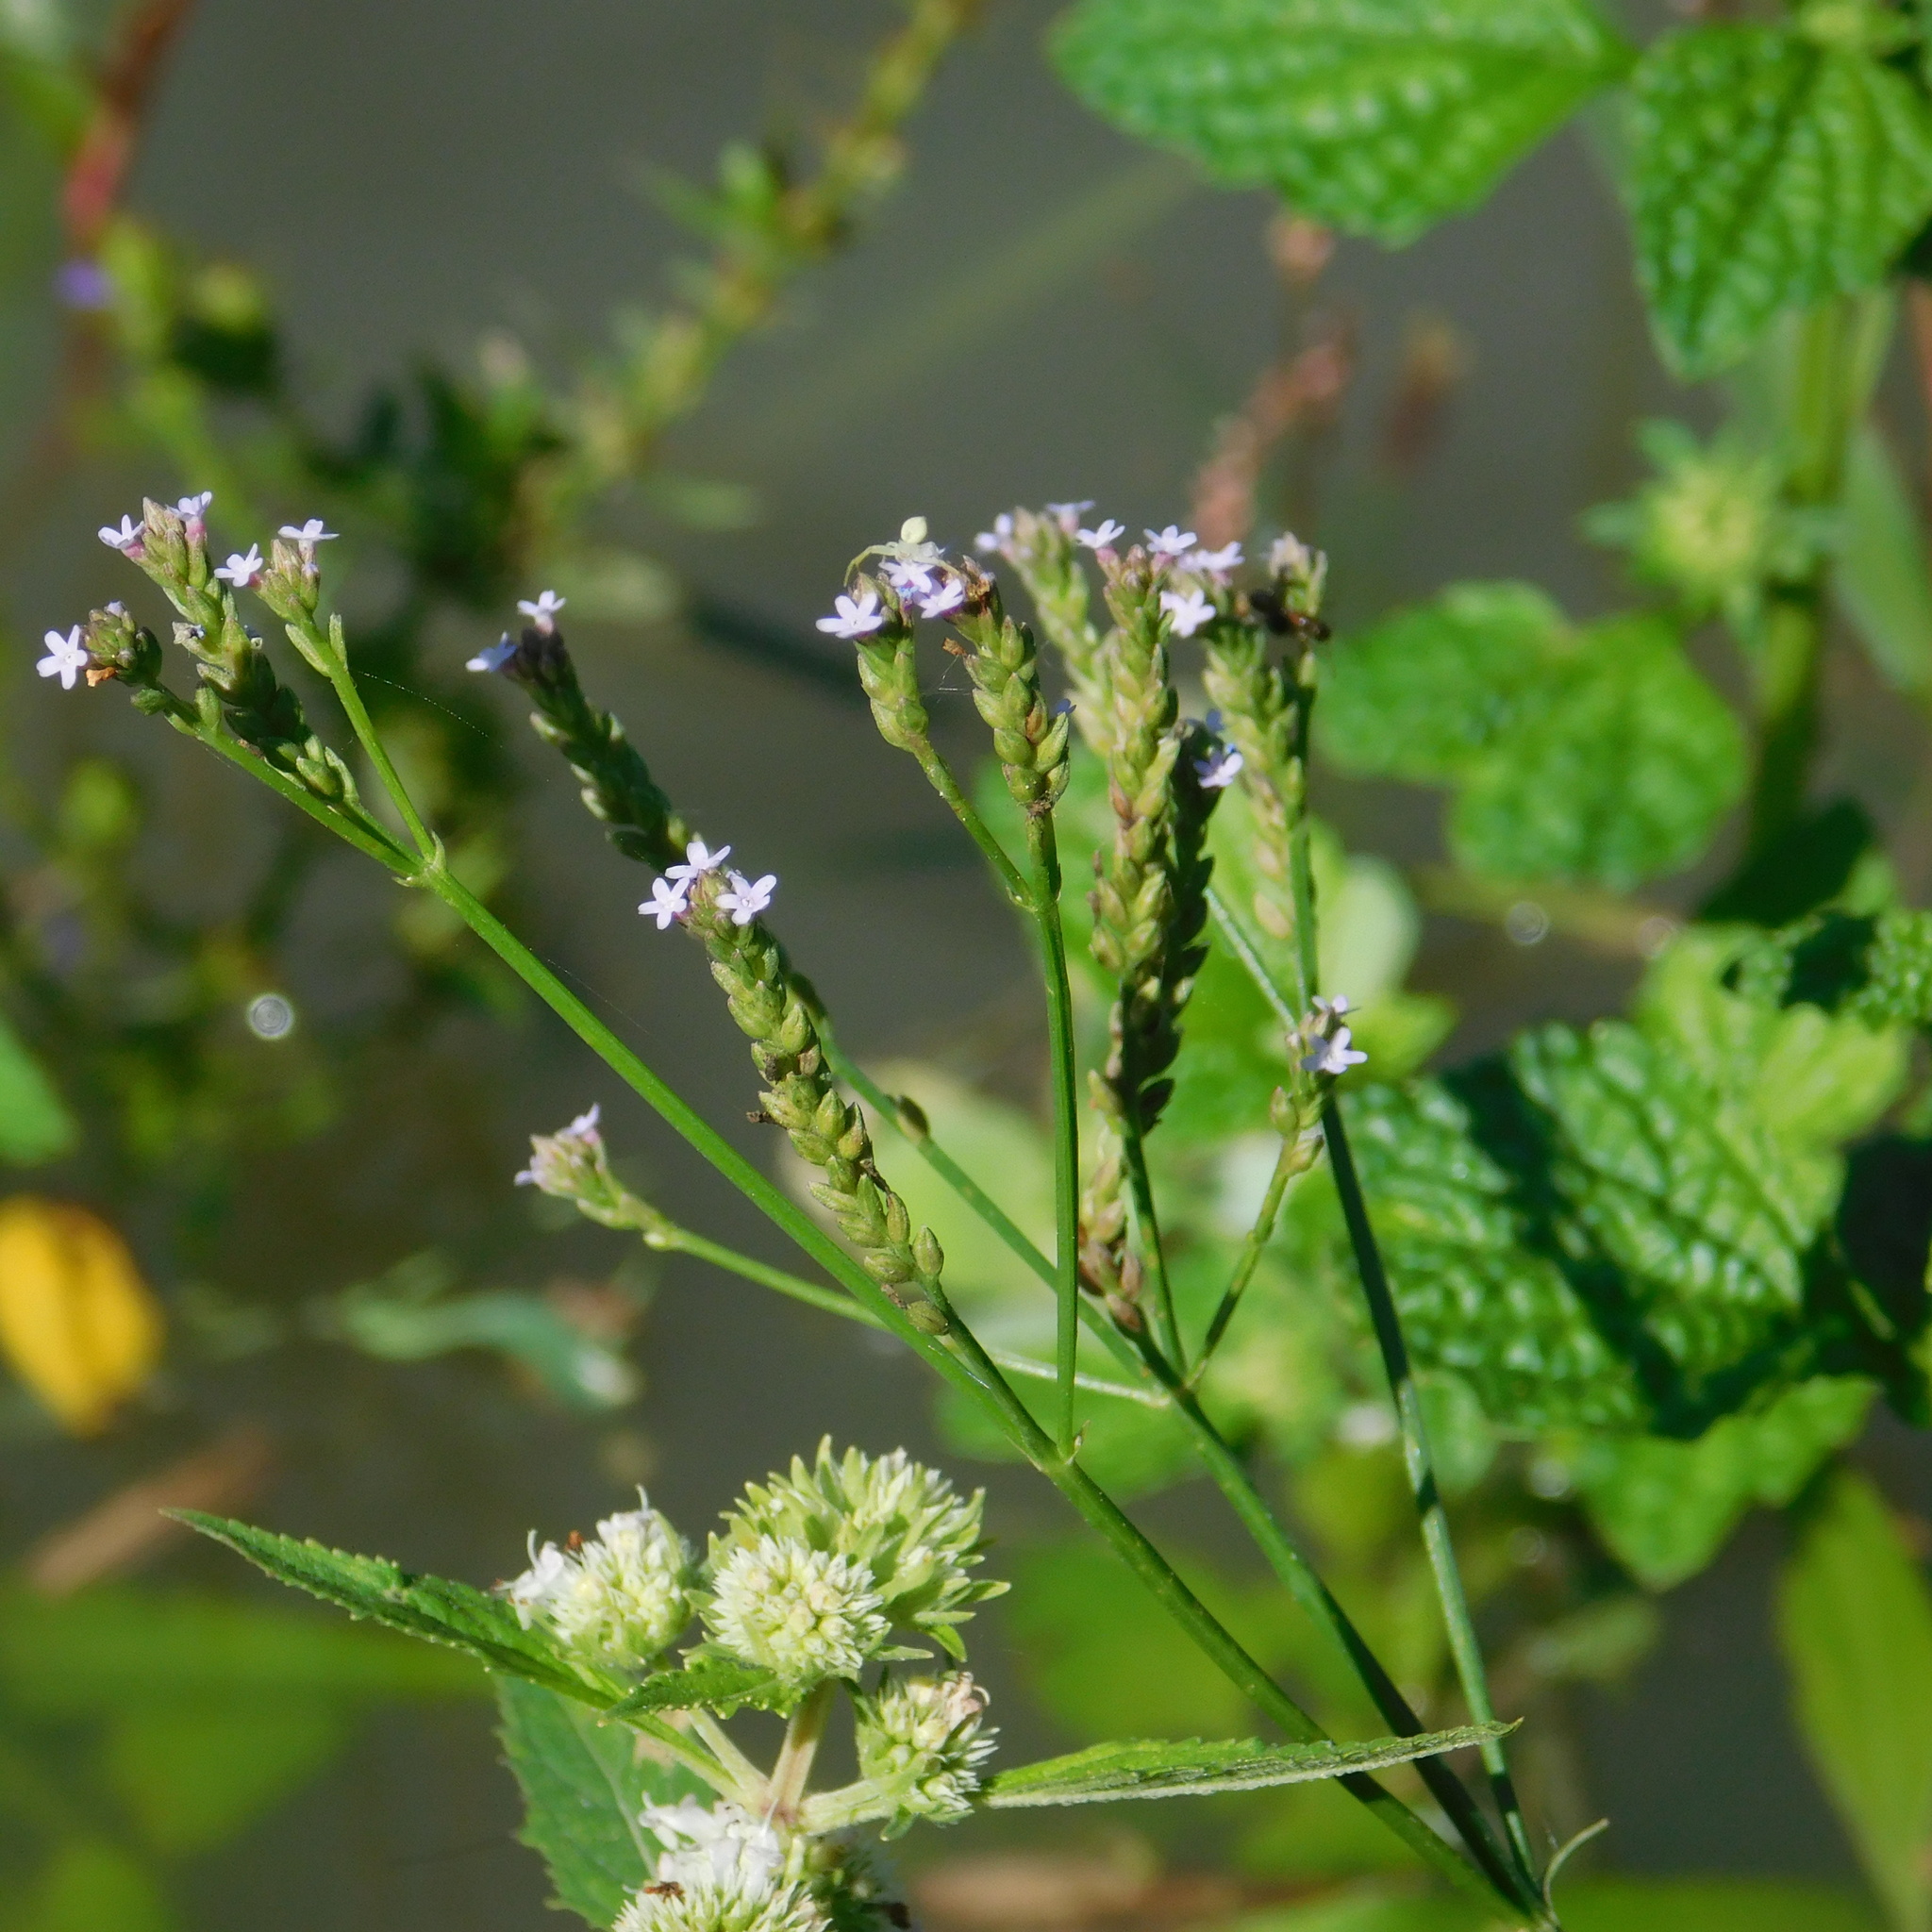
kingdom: Plantae
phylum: Tracheophyta
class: Magnoliopsida
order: Lamiales
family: Verbenaceae
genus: Verbena
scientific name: Verbena litoralis
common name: Seashore vervain
